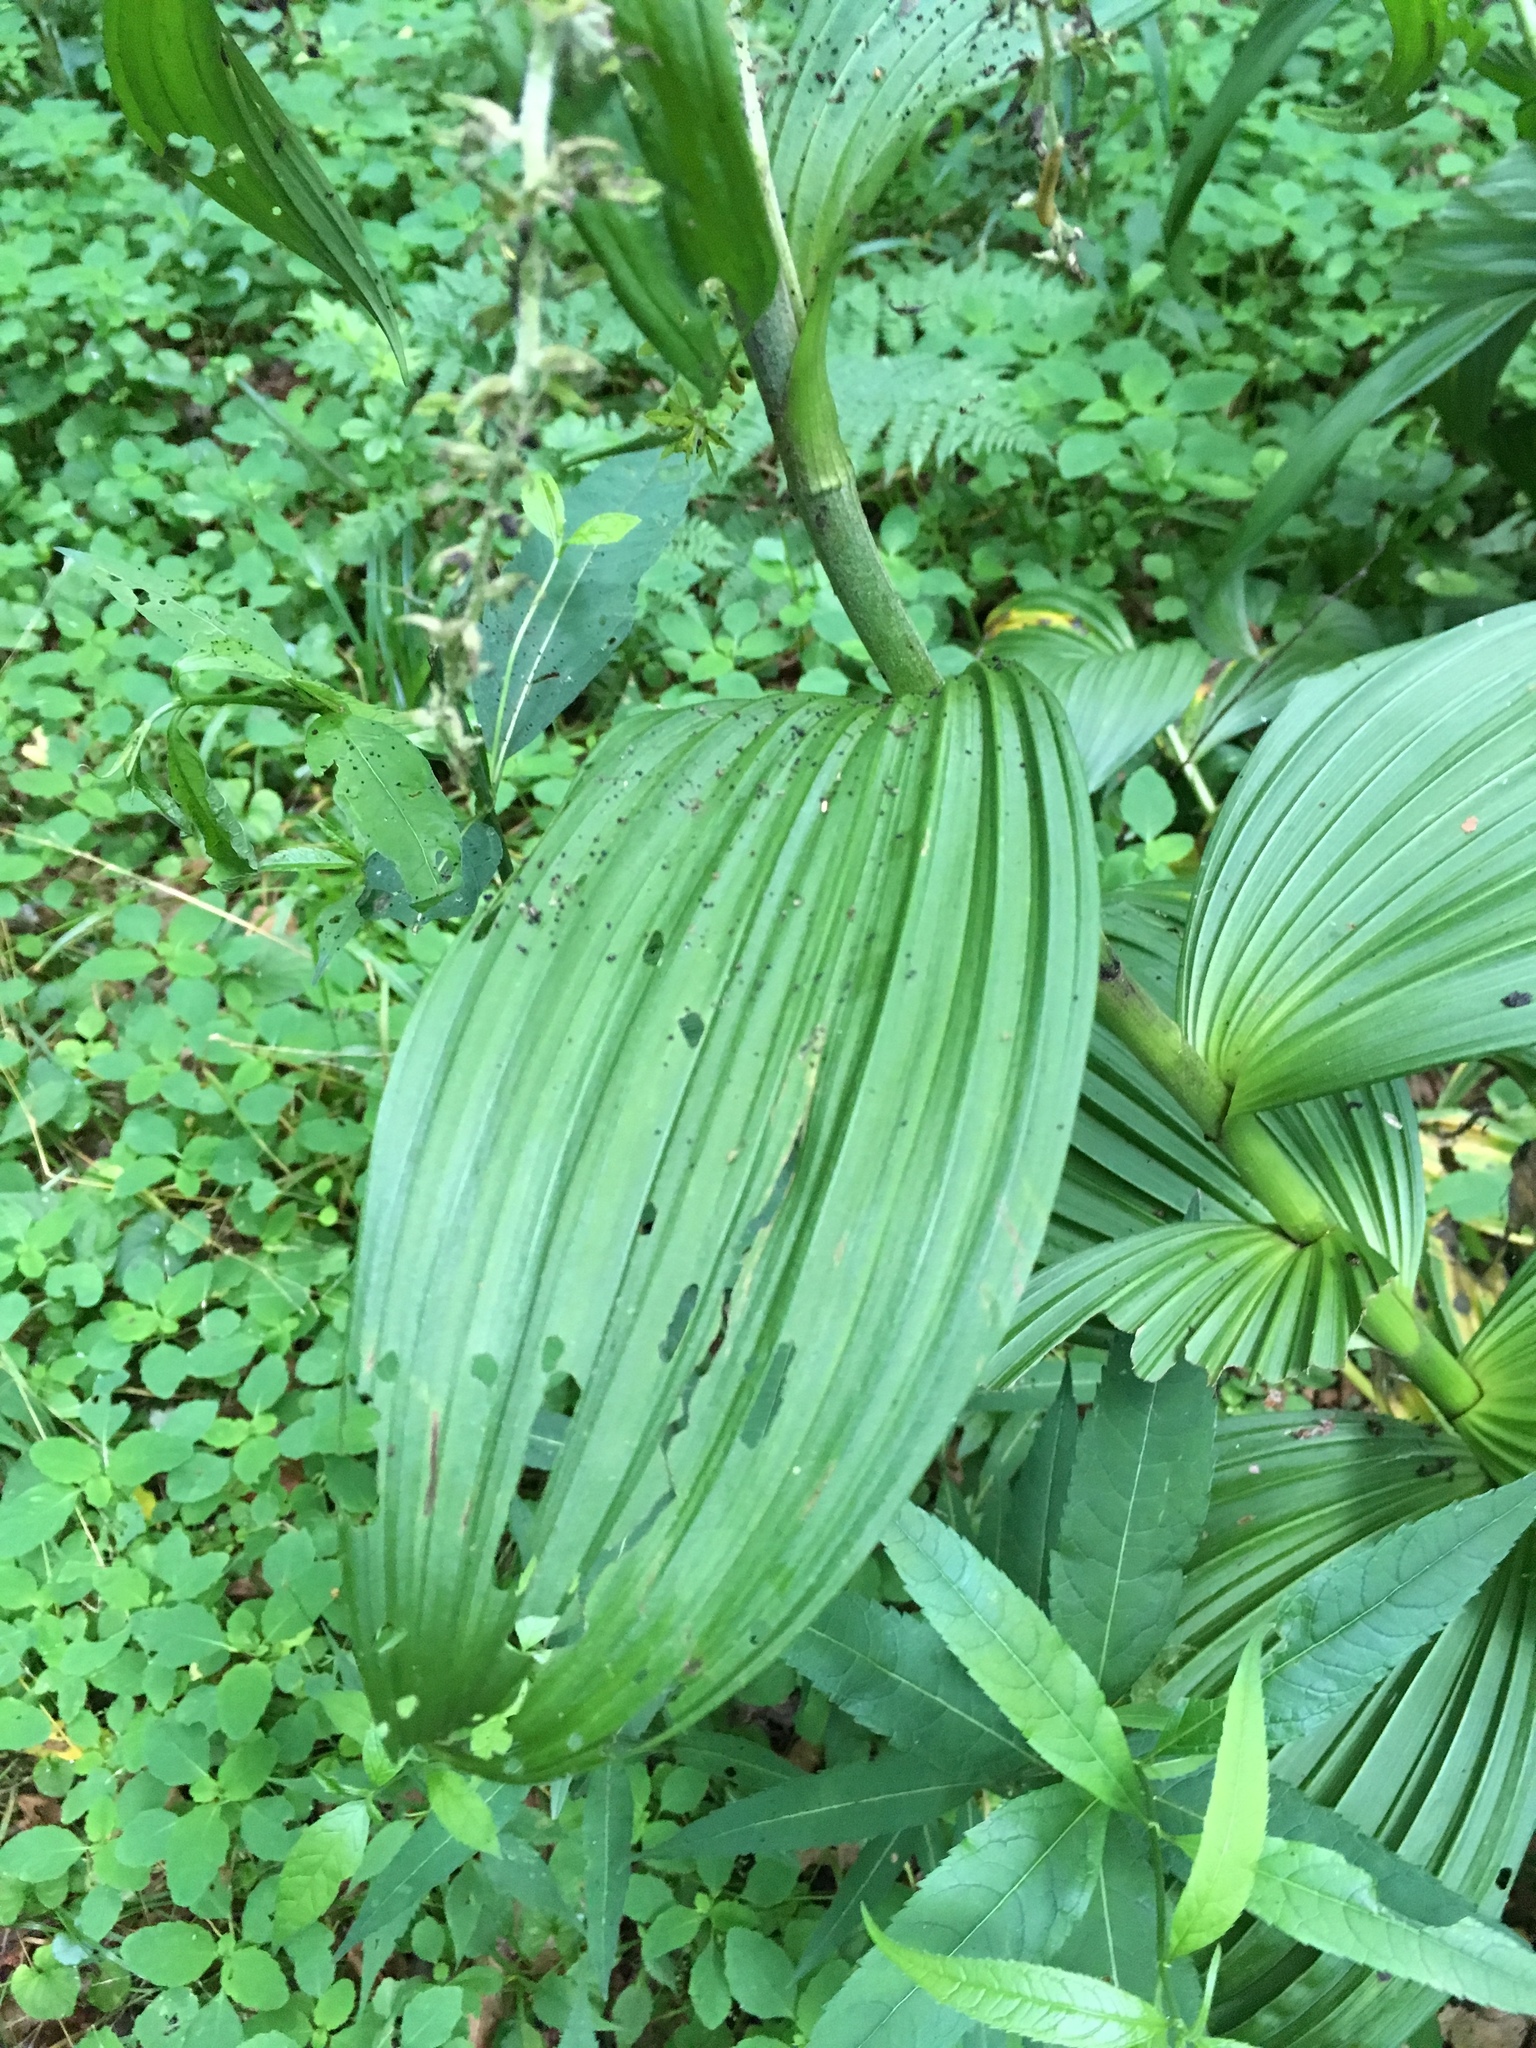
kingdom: Plantae
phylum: Tracheophyta
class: Liliopsida
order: Liliales
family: Melanthiaceae
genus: Veratrum
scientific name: Veratrum viride
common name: American false hellebore
